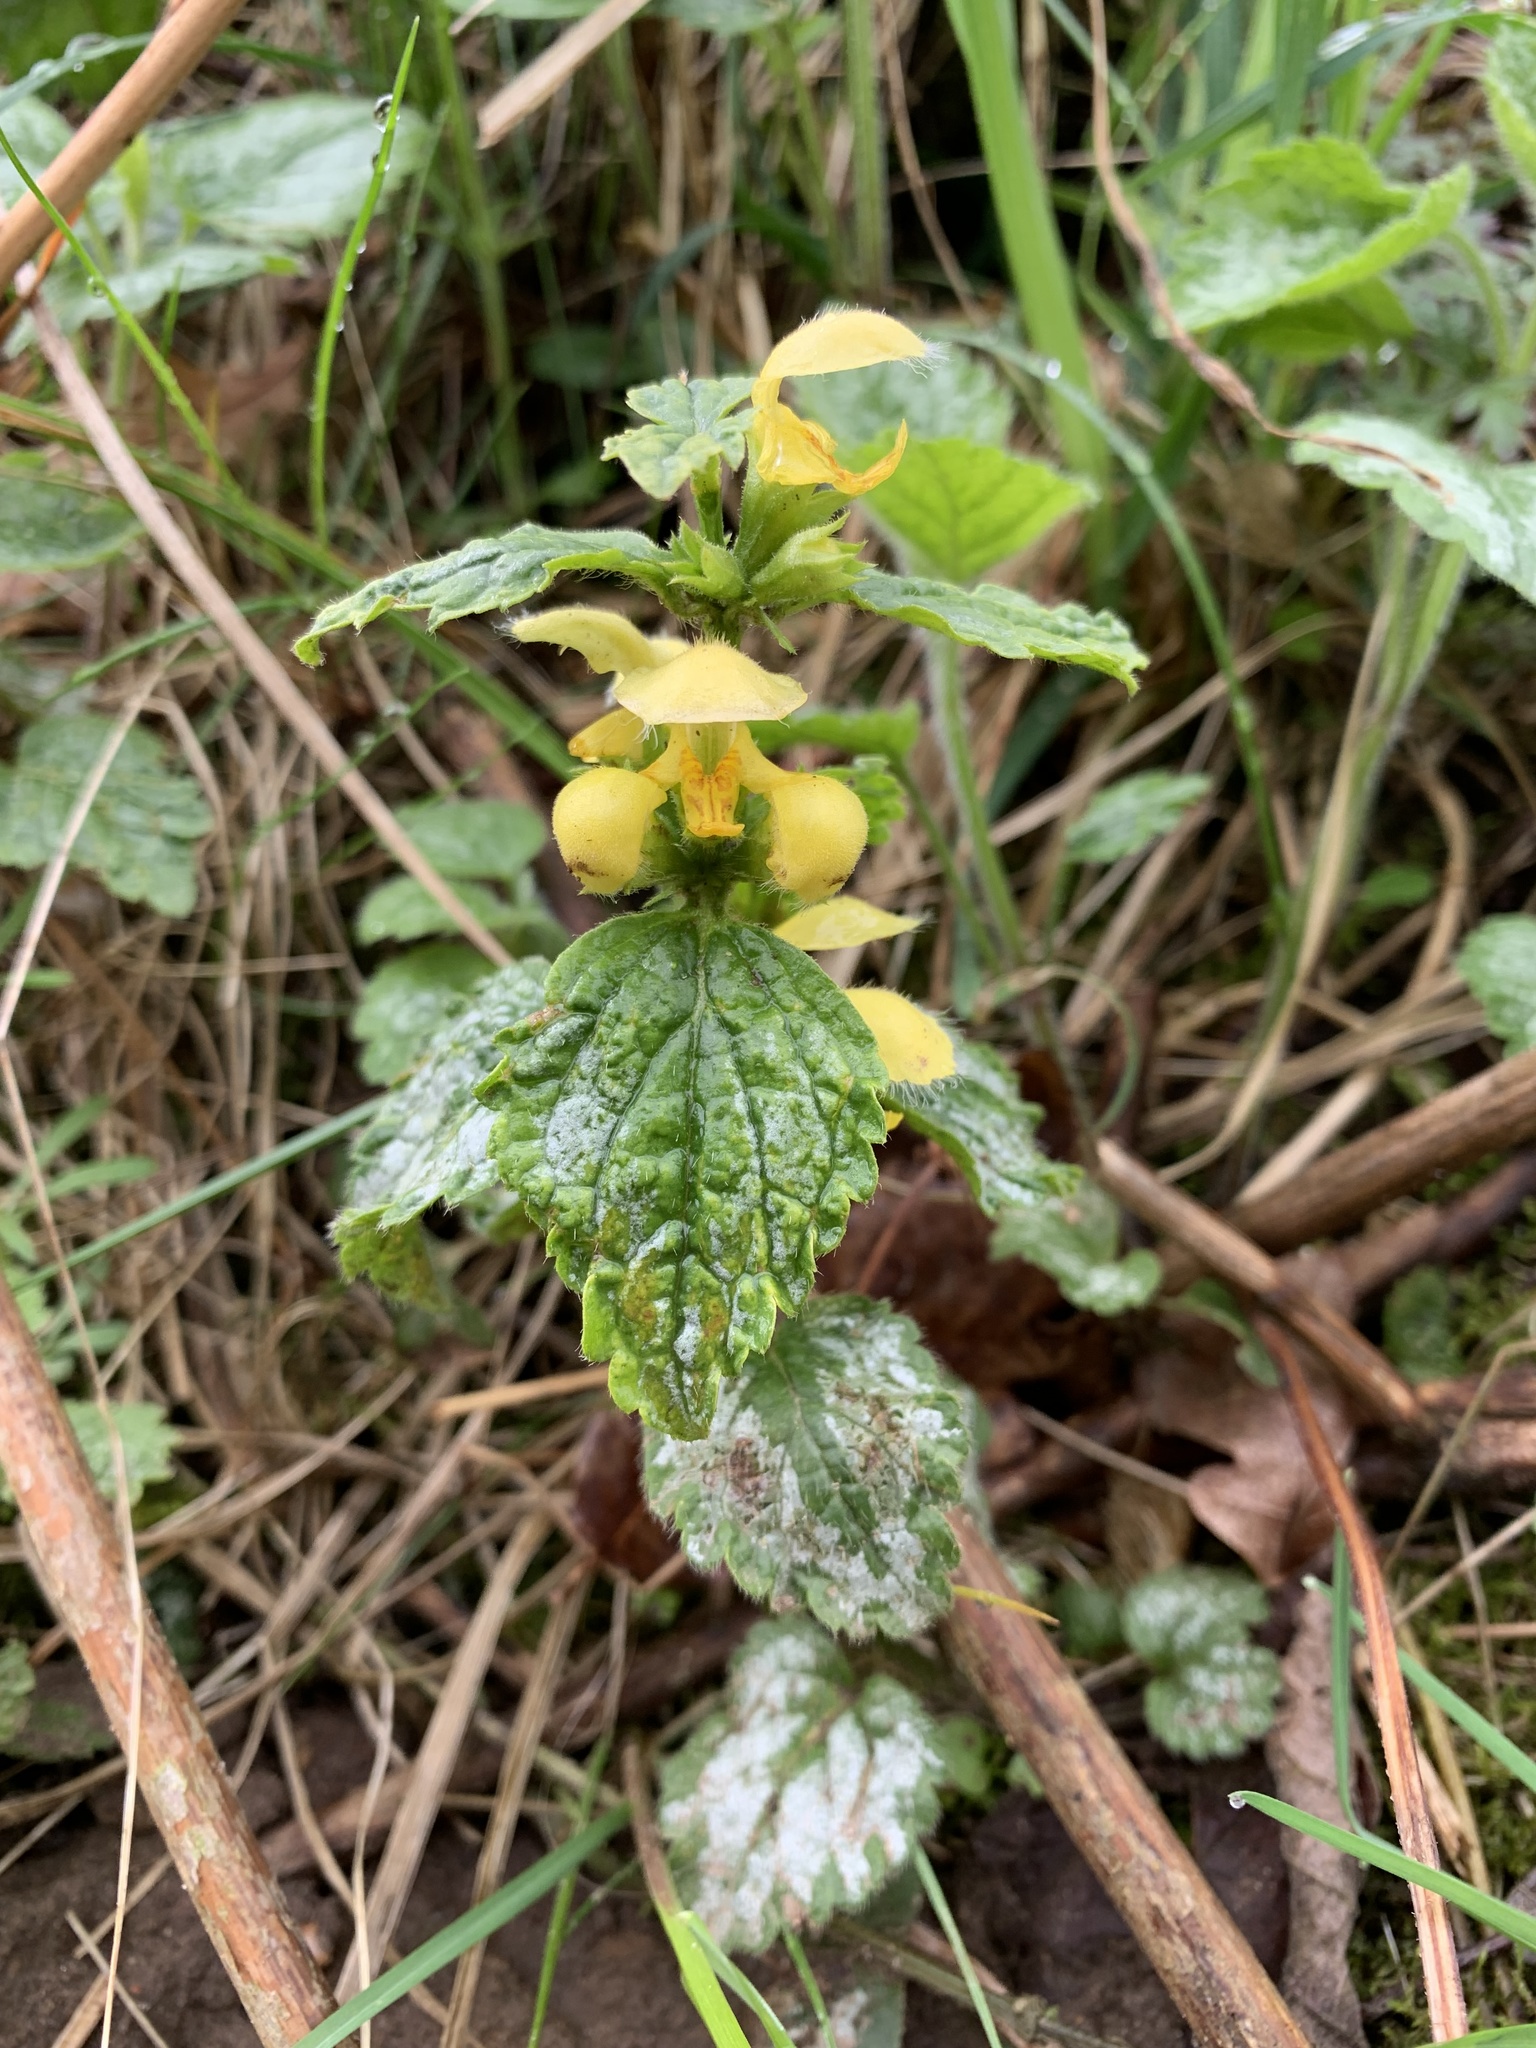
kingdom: Plantae
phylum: Tracheophyta
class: Magnoliopsida
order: Lamiales
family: Lamiaceae
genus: Lamium
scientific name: Lamium galeobdolon
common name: Yellow archangel
